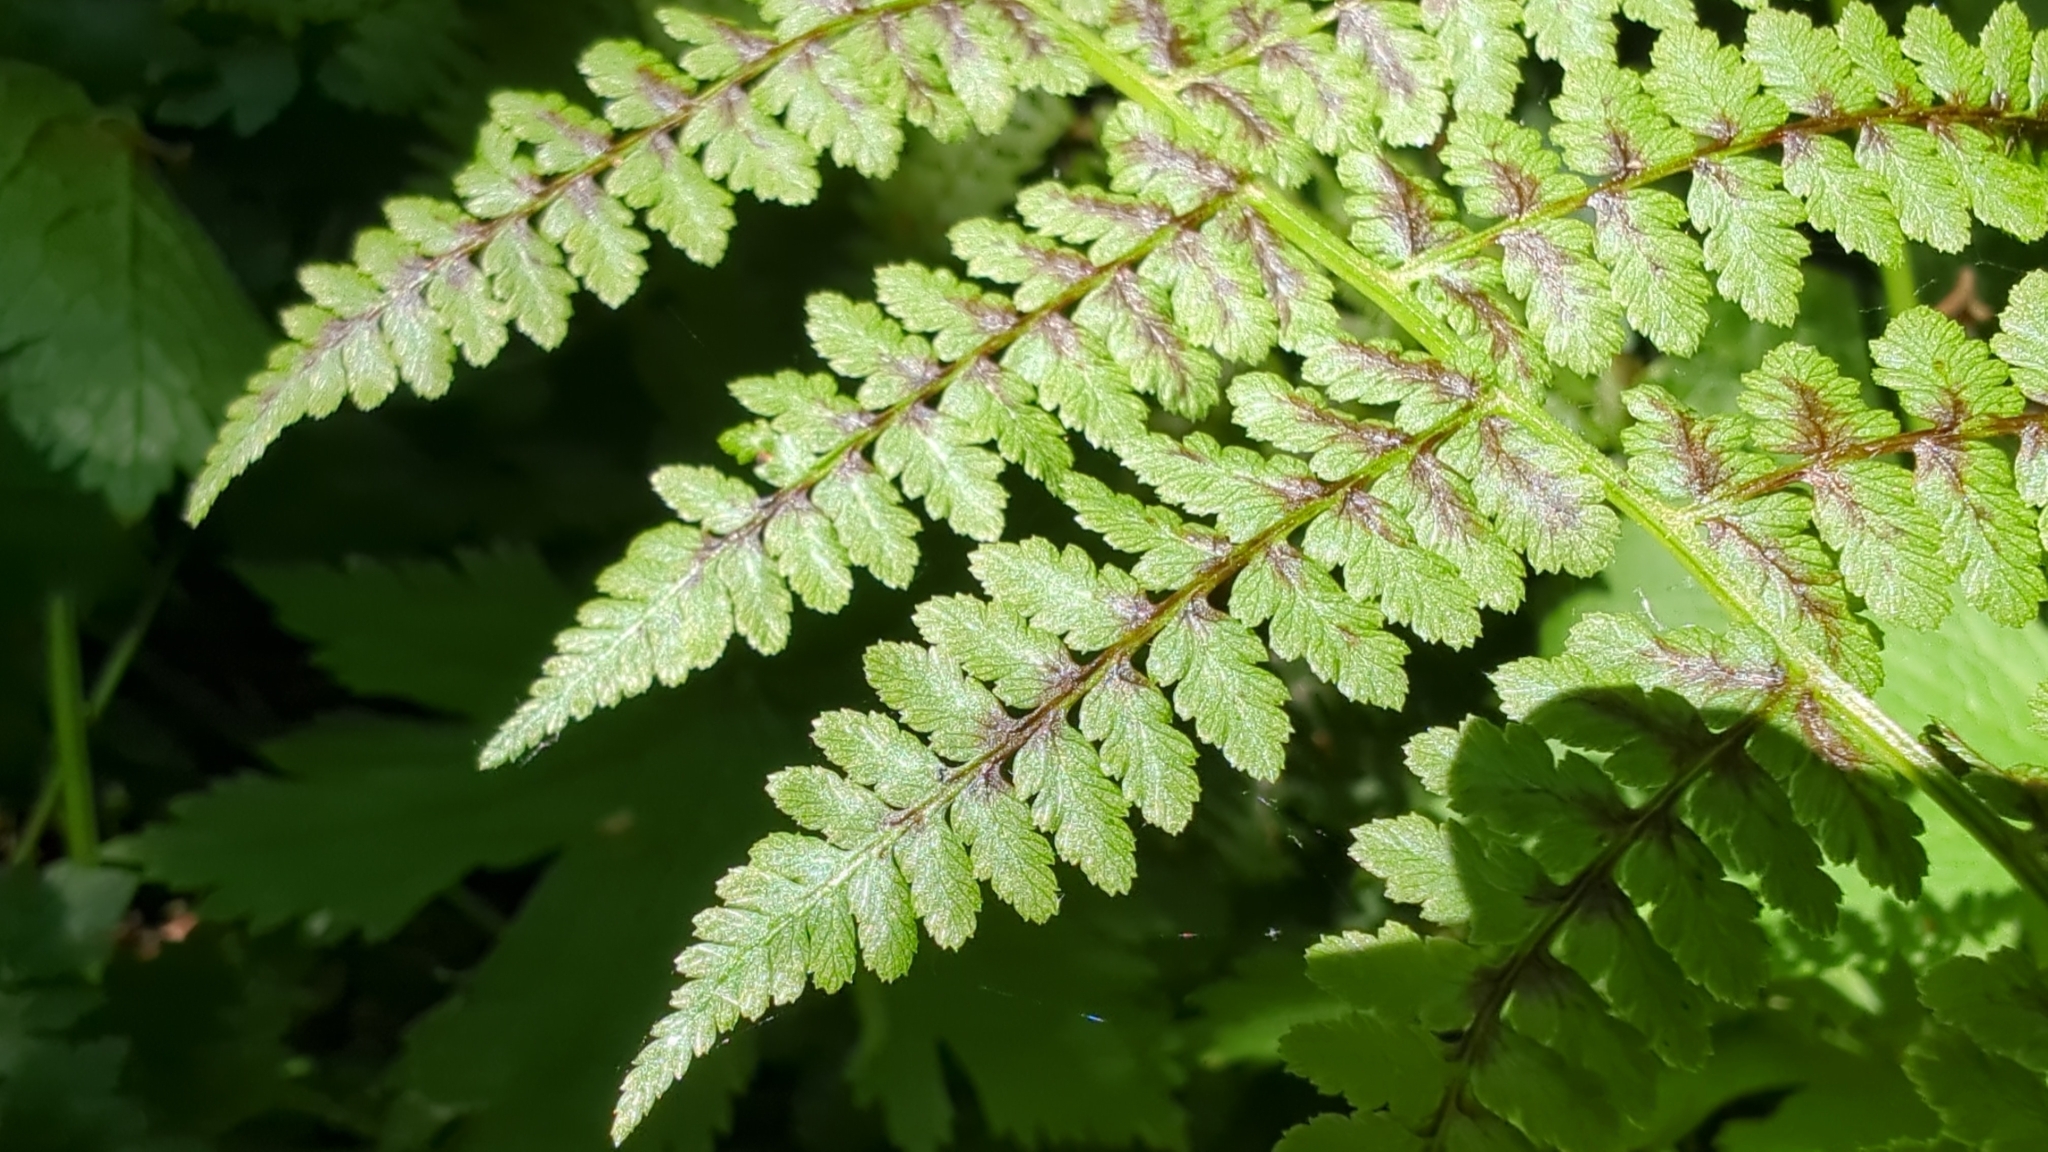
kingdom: Plantae
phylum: Tracheophyta
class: Polypodiopsida
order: Polypodiales
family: Athyriaceae
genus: Athyrium
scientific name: Athyrium filix-femina
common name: Lady fern
